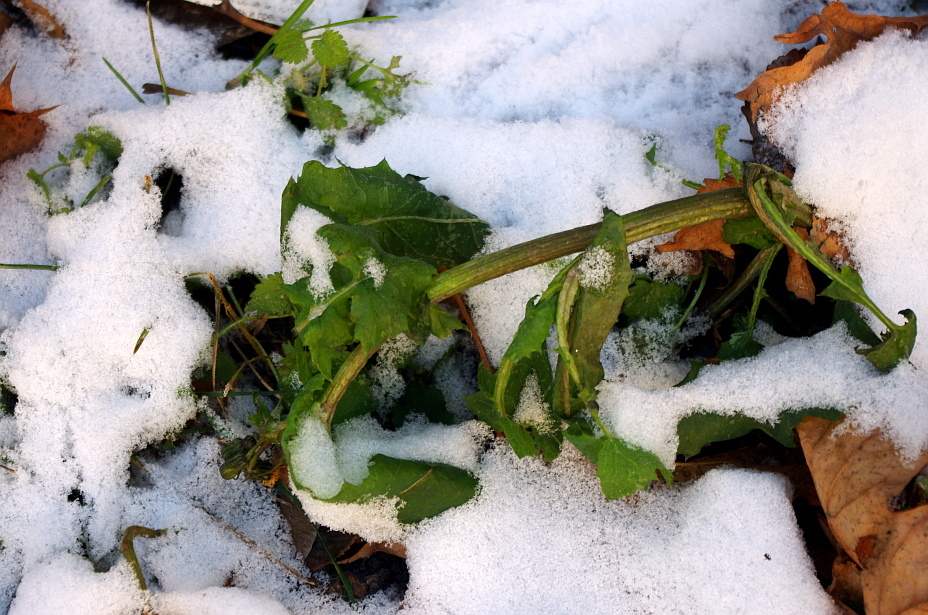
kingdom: Plantae
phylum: Tracheophyta
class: Magnoliopsida
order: Asterales
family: Asteraceae
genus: Sonchus
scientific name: Sonchus oleraceus
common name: Common sowthistle
